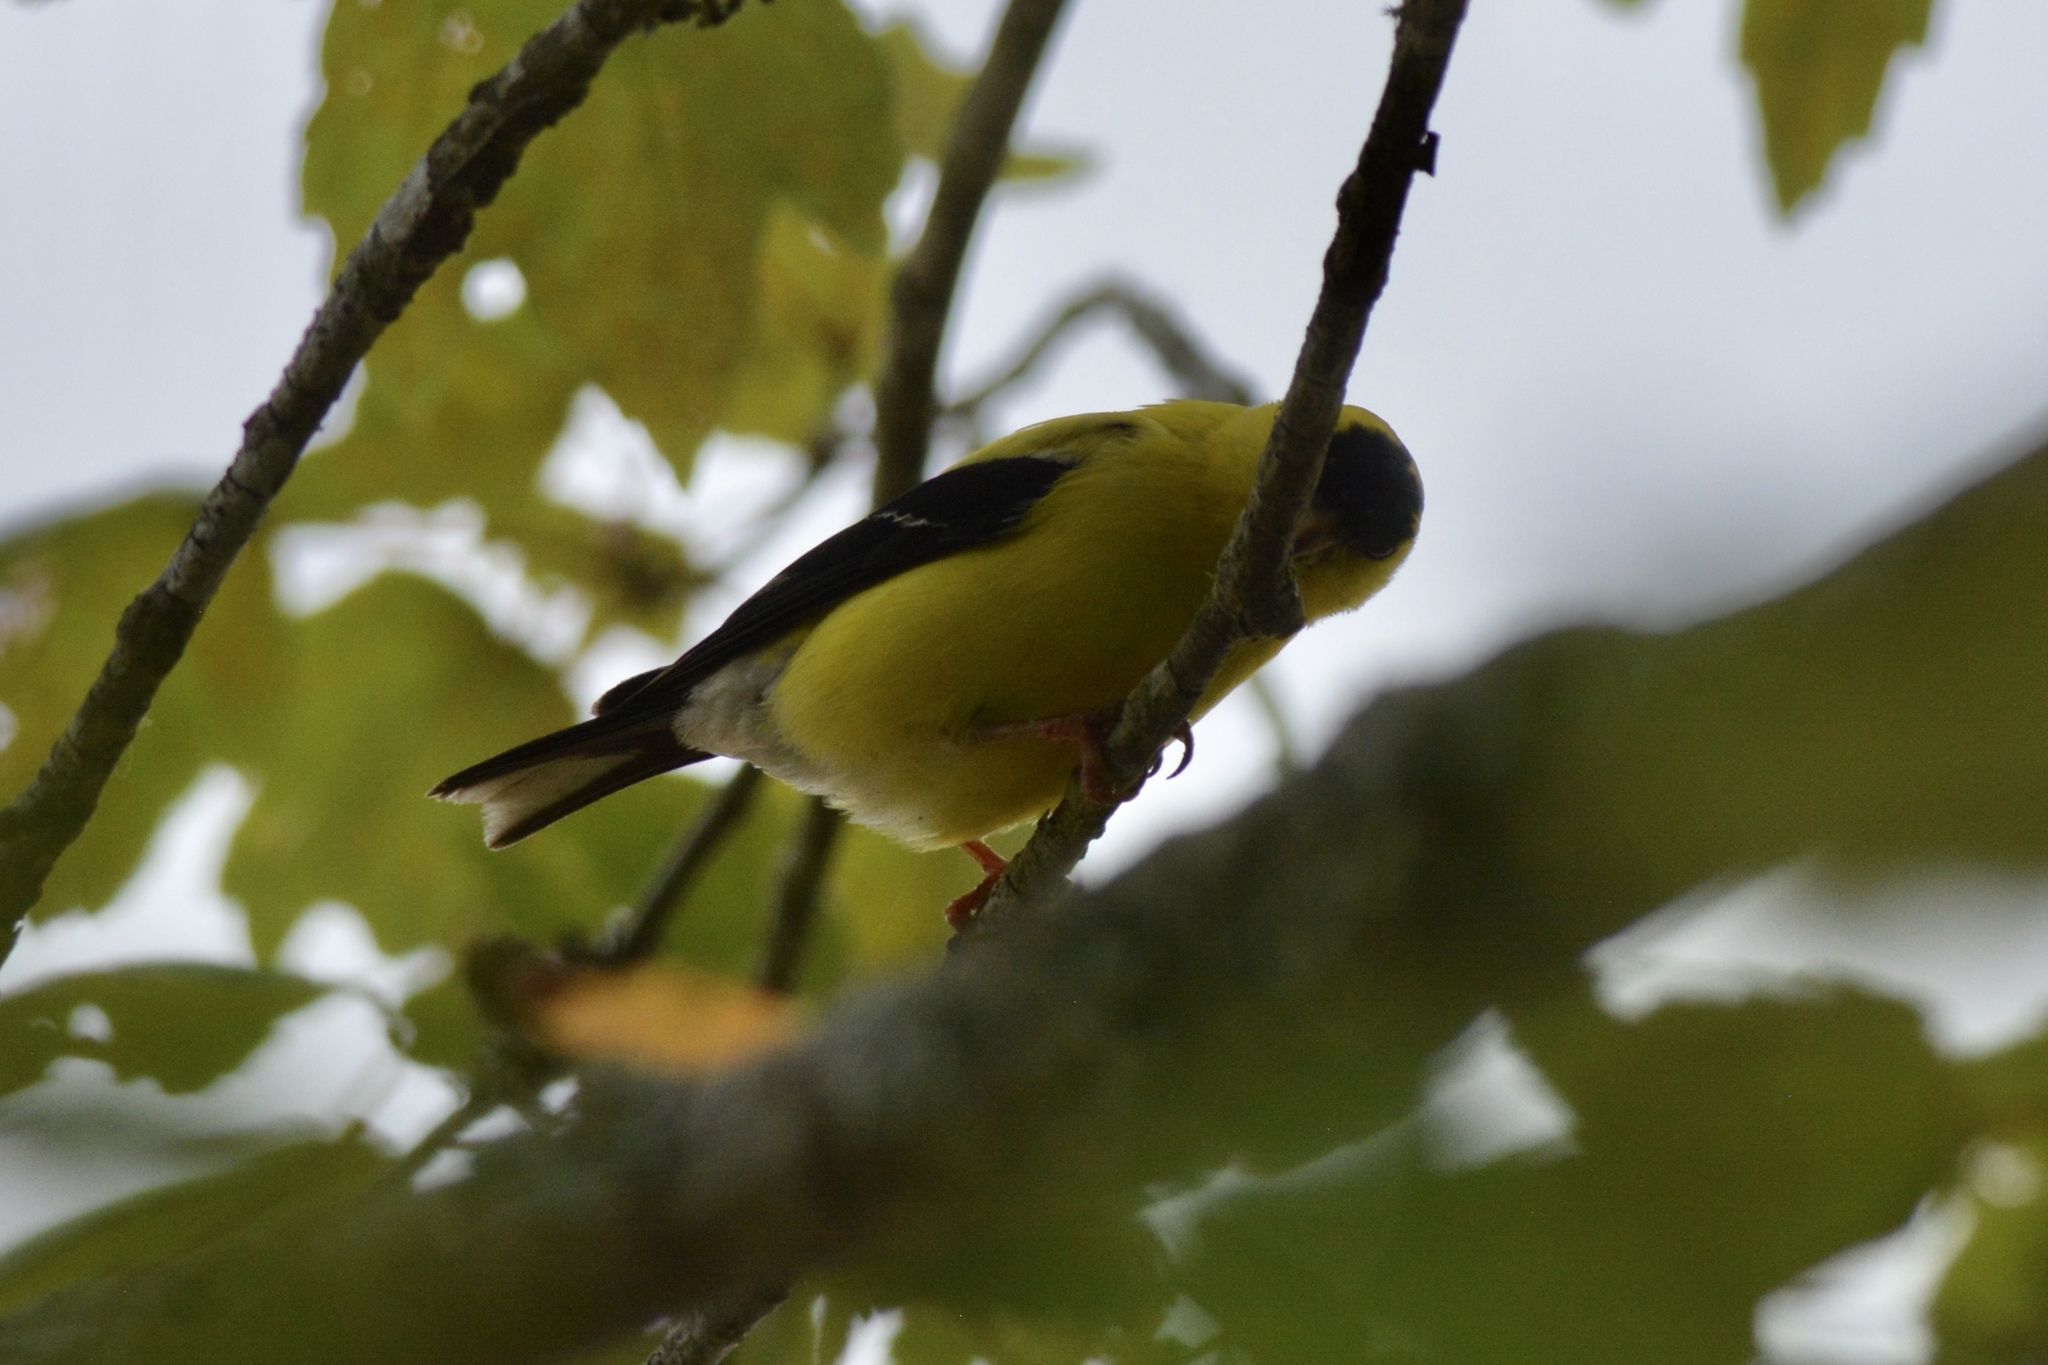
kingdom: Animalia
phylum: Chordata
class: Aves
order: Passeriformes
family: Fringillidae
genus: Spinus
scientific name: Spinus tristis
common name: American goldfinch
